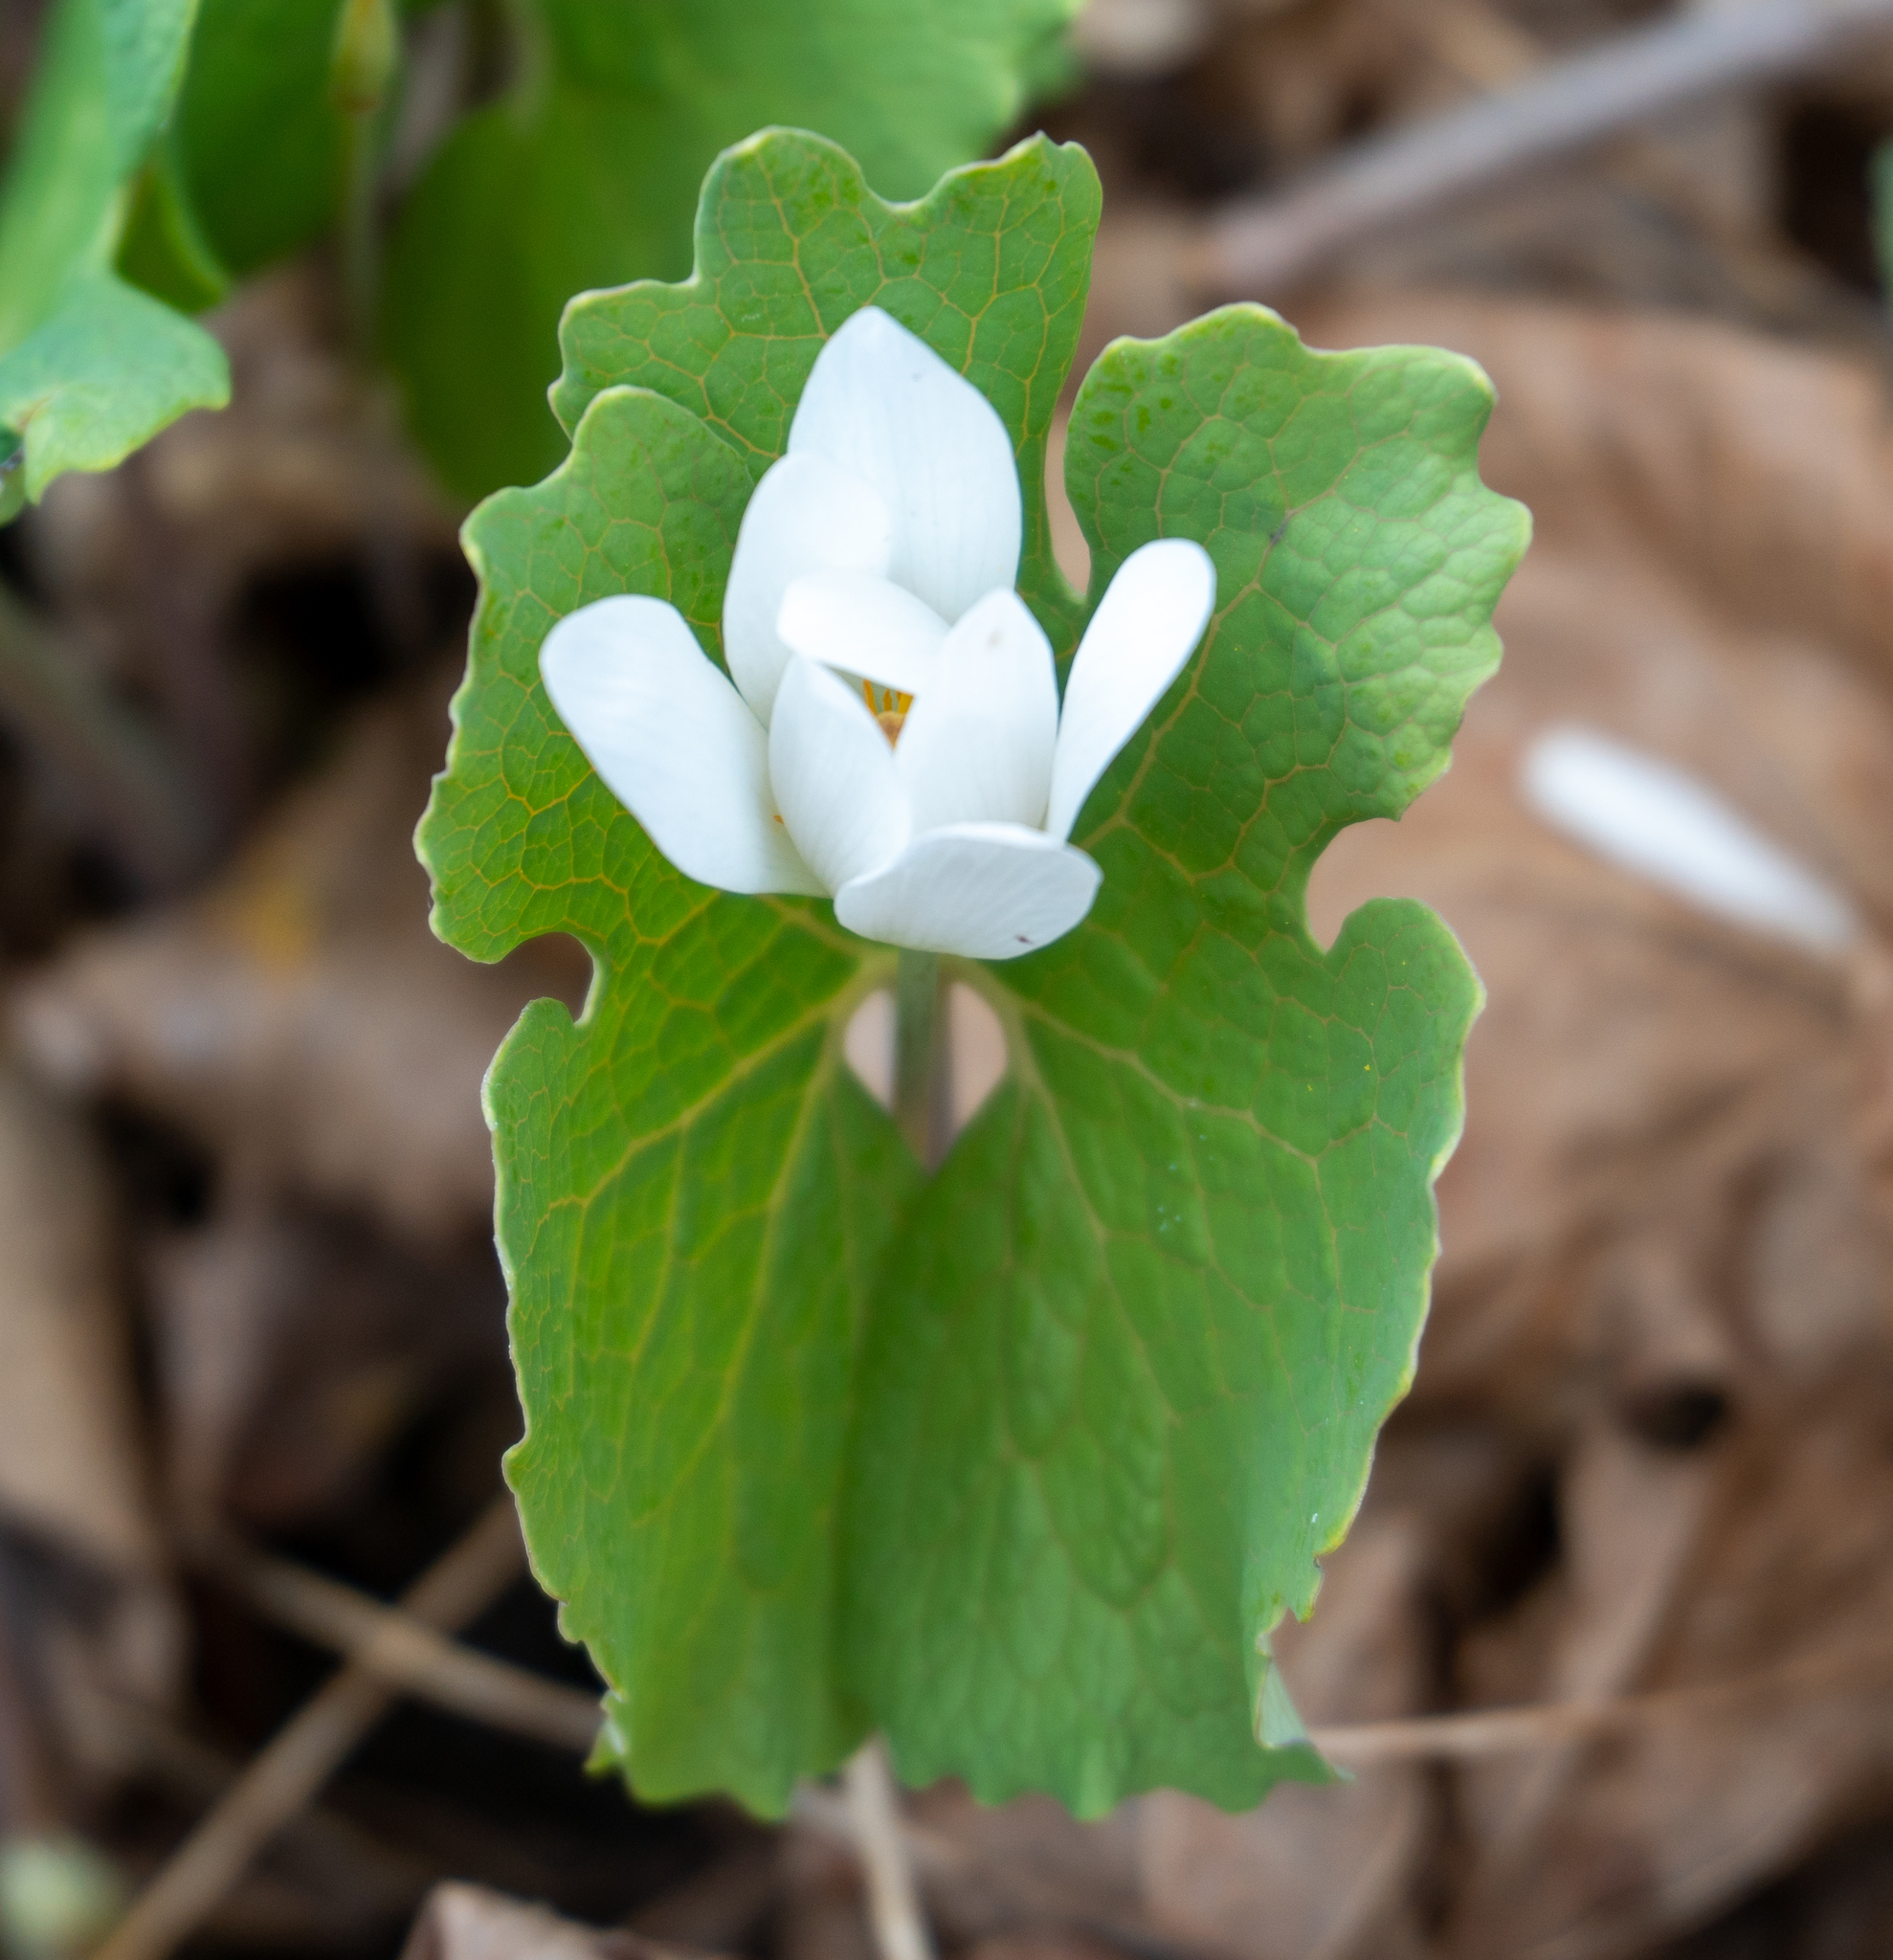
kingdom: Plantae
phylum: Tracheophyta
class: Magnoliopsida
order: Ranunculales
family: Papaveraceae
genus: Sanguinaria
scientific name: Sanguinaria canadensis
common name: Bloodroot
